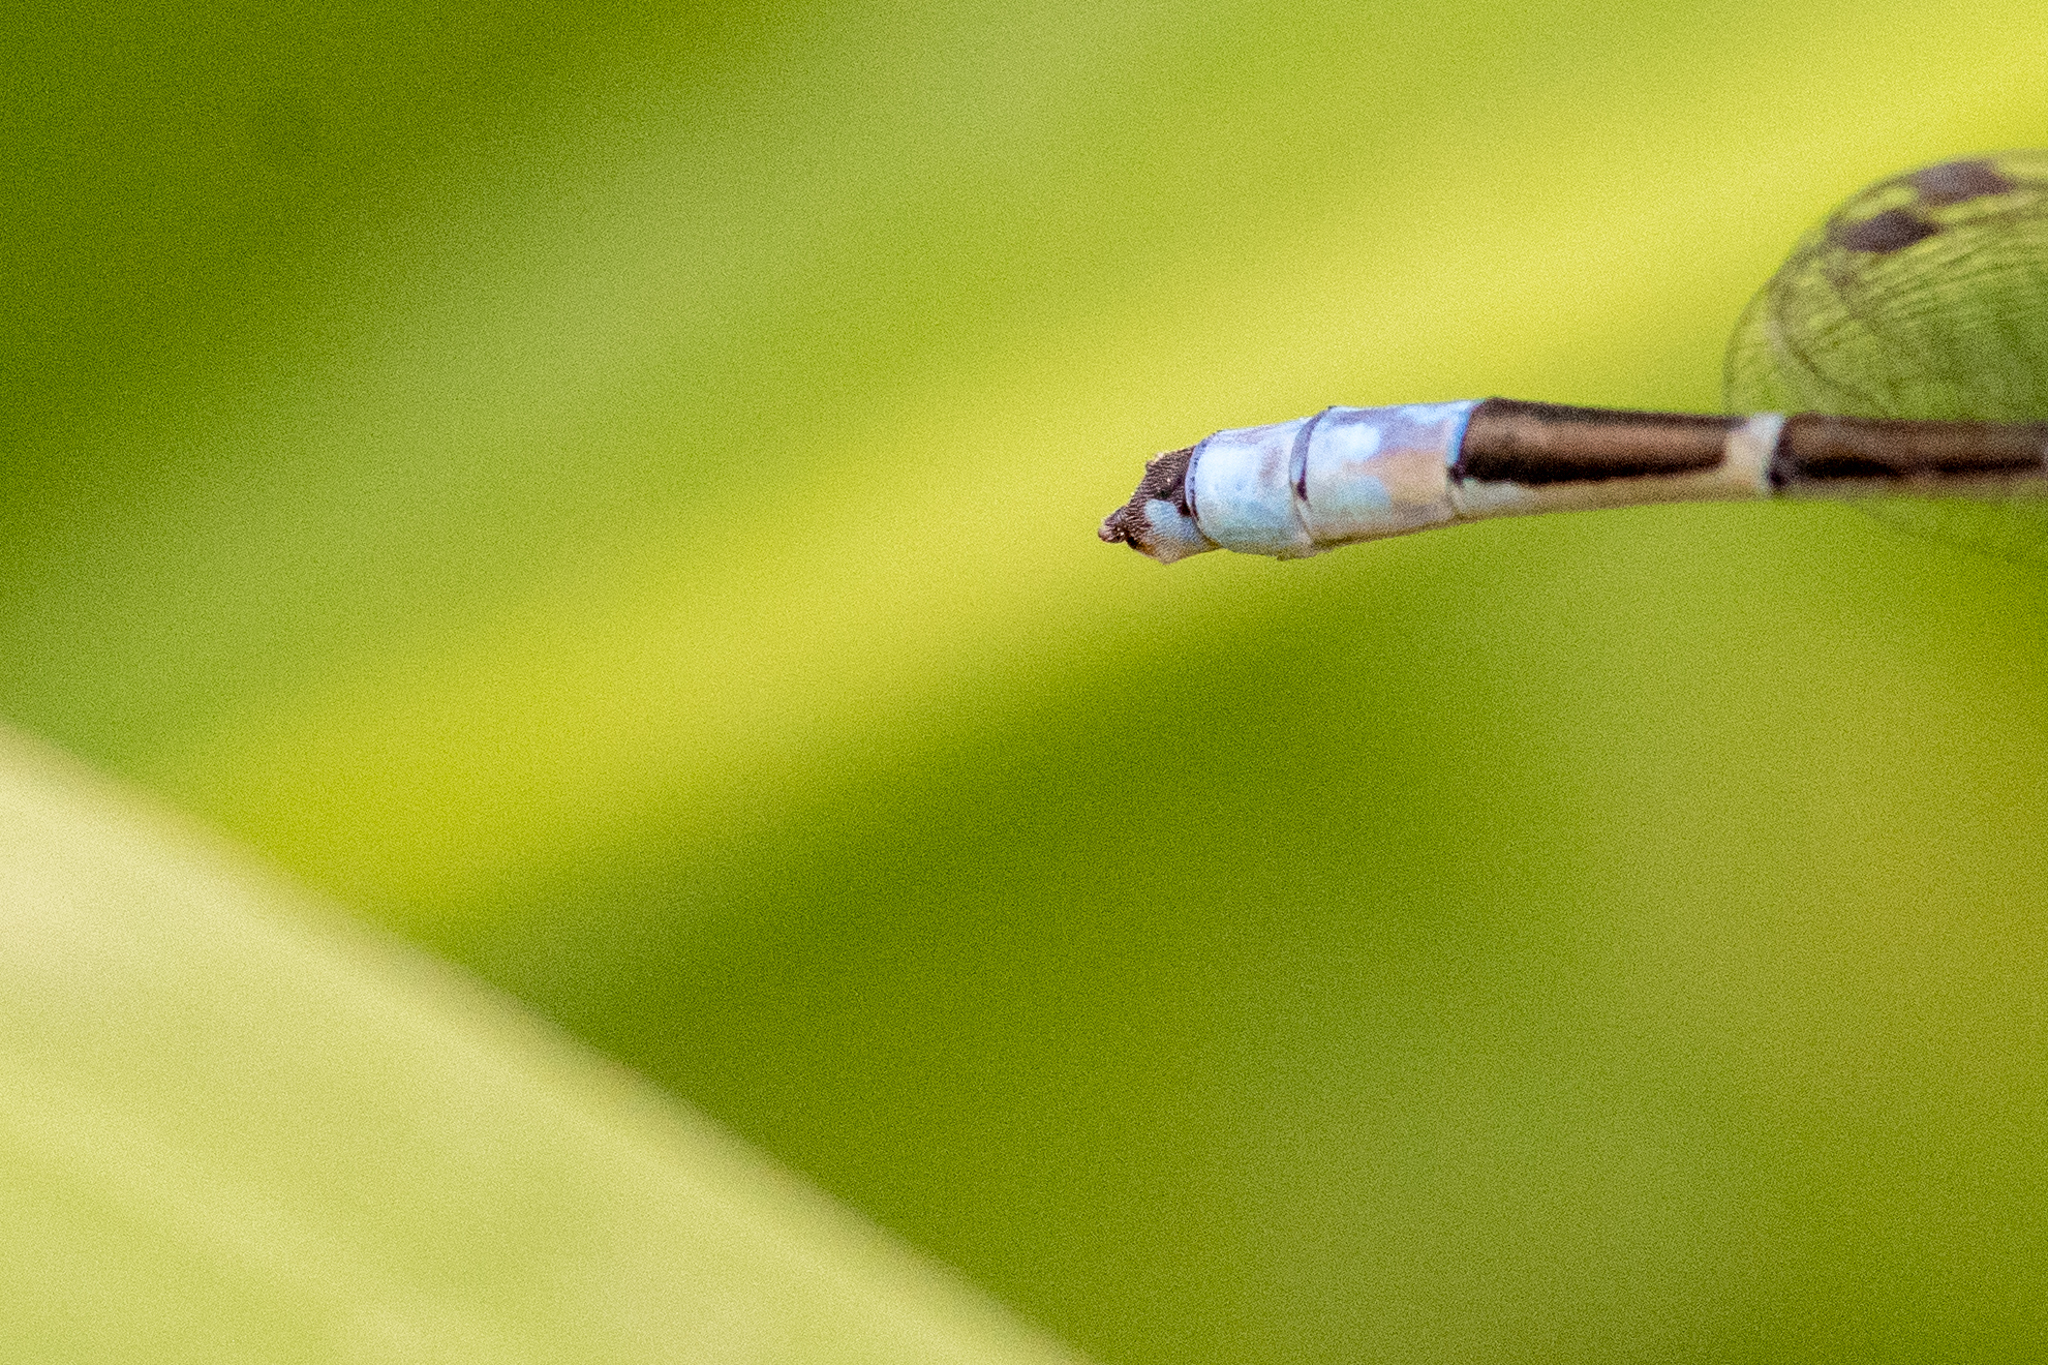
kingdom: Animalia
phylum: Arthropoda
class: Insecta
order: Odonata
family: Coenagrionidae
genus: Enallagma
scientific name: Enallagma carunculatum
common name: Tule bluet
